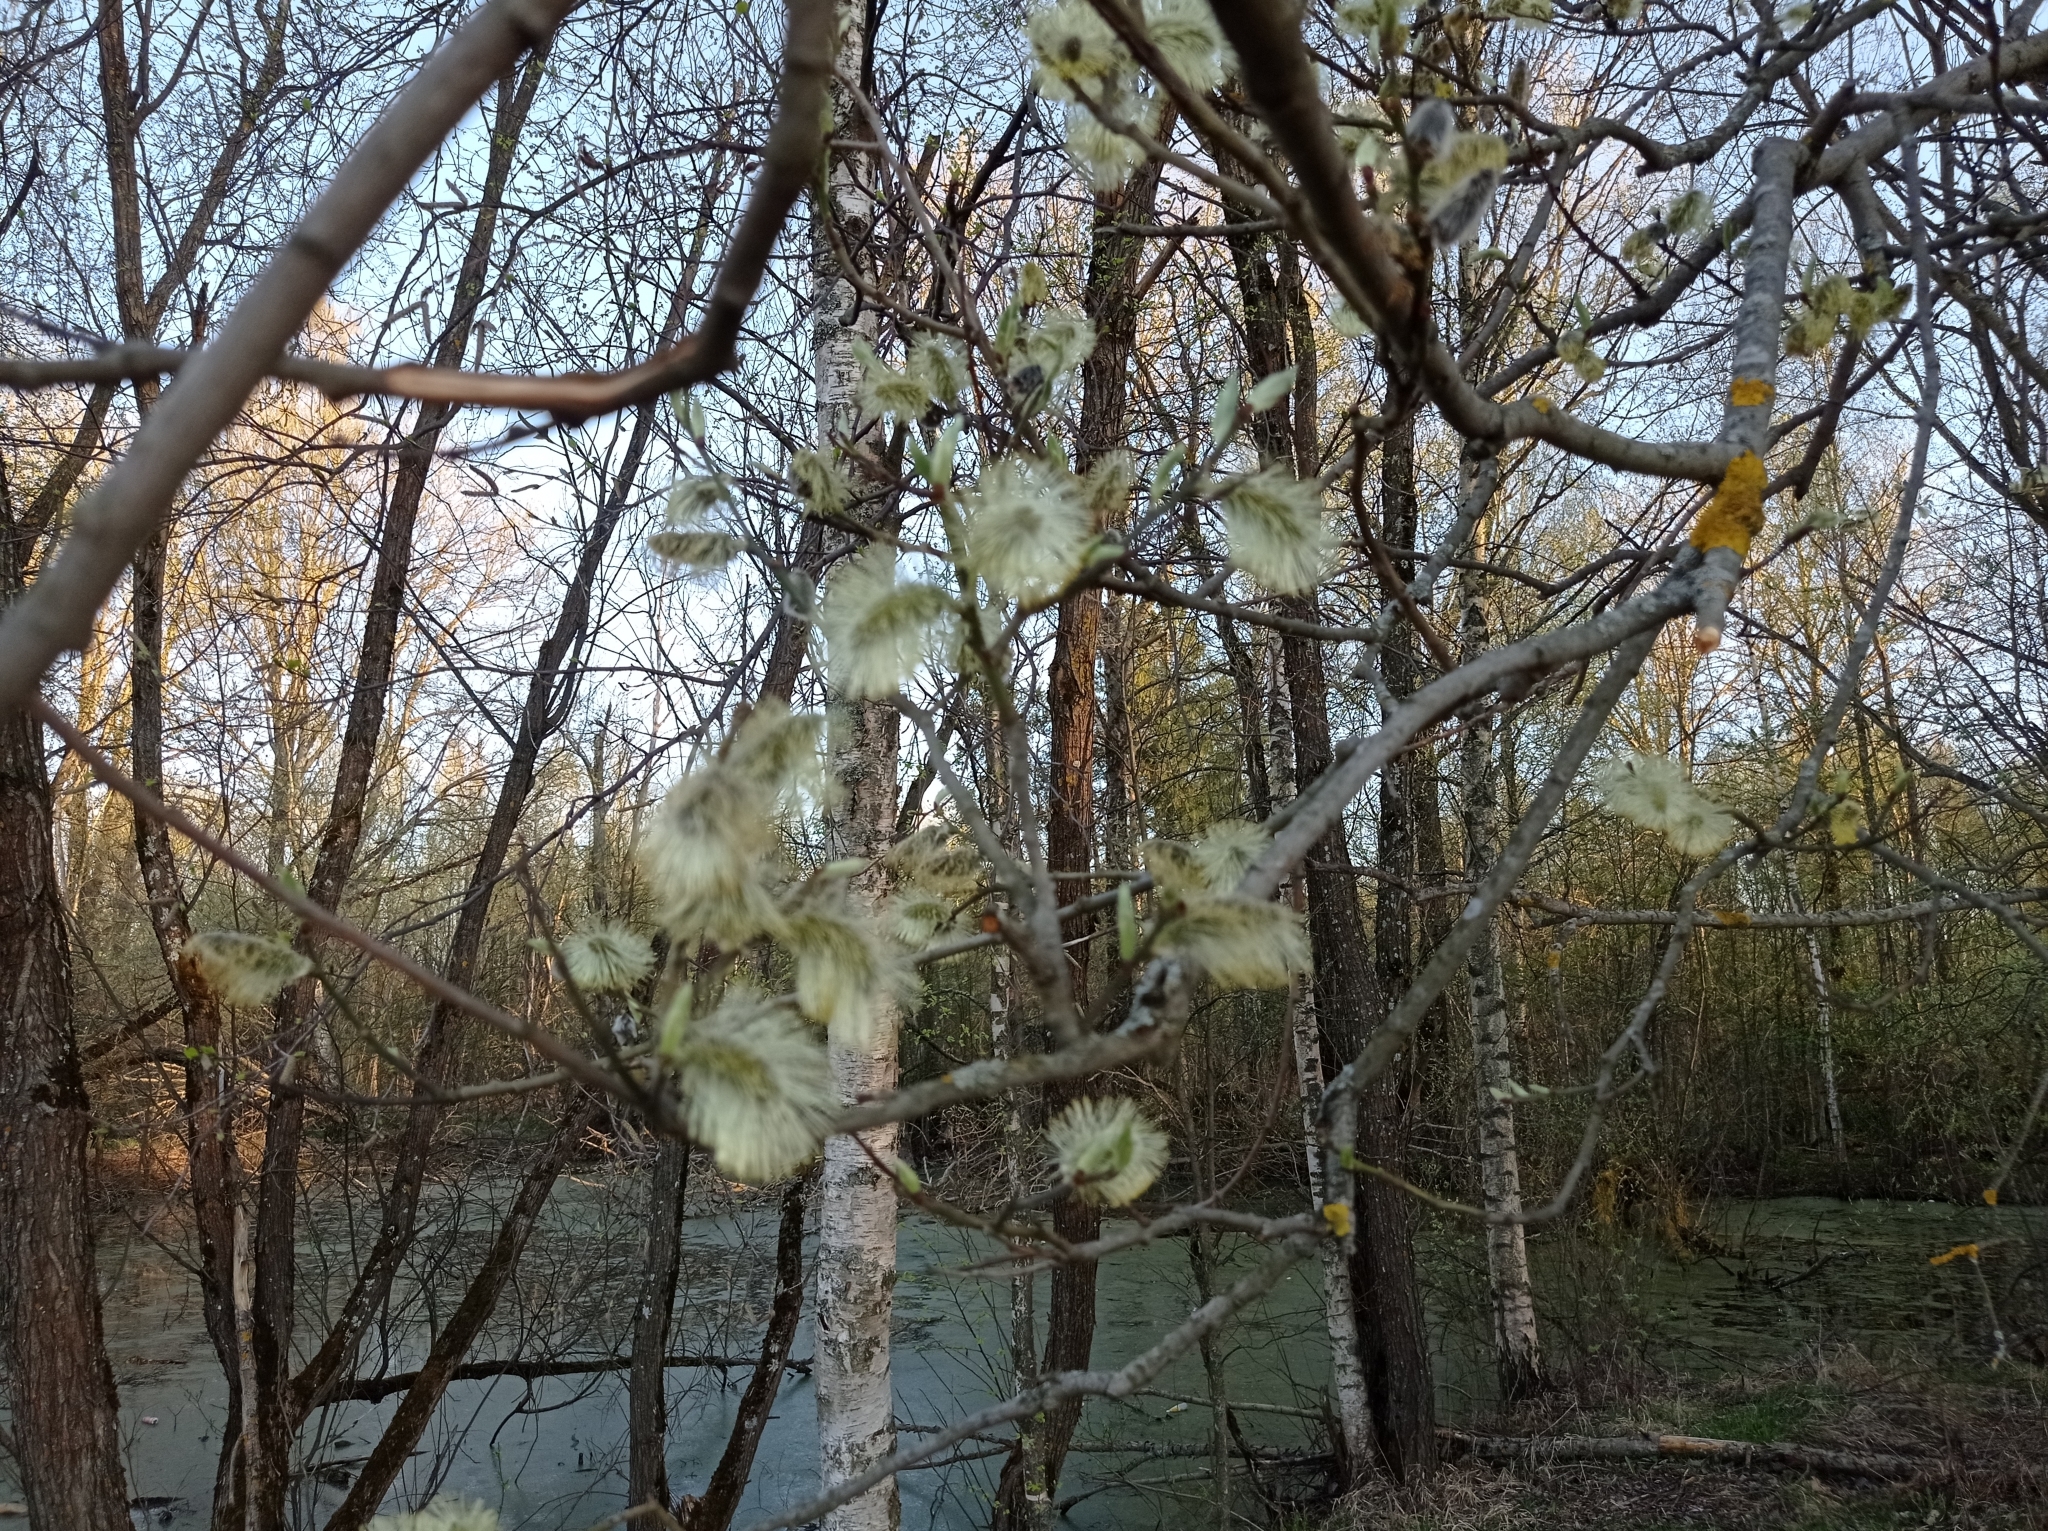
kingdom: Plantae
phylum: Tracheophyta
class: Magnoliopsida
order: Malpighiales
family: Salicaceae
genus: Salix
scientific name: Salix caprea
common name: Goat willow
